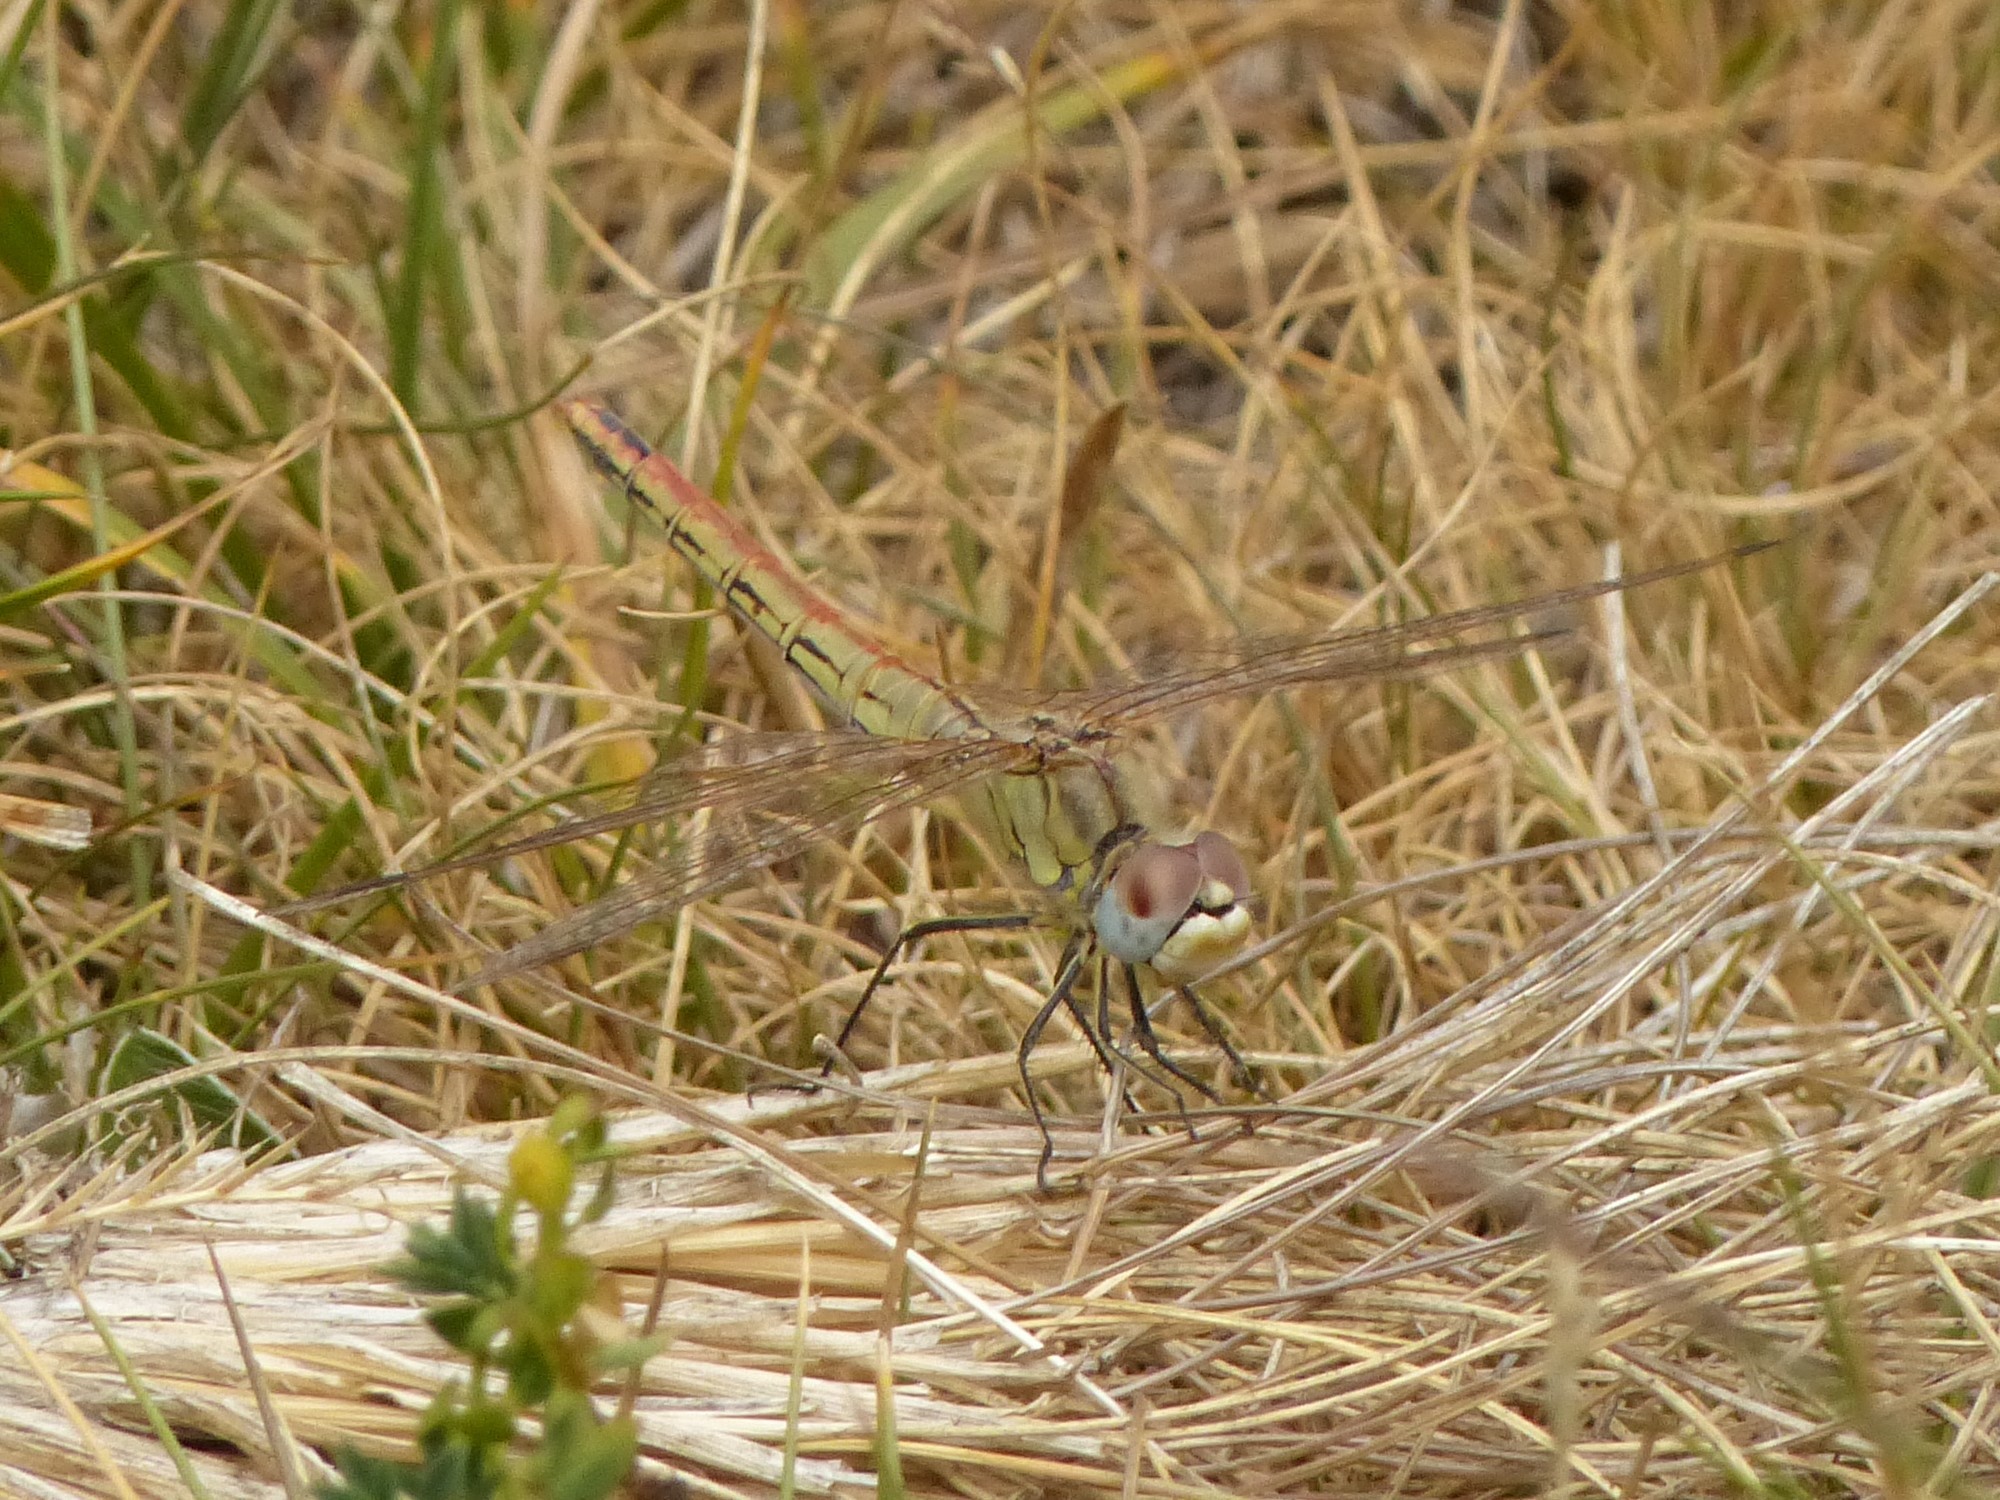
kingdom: Animalia
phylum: Arthropoda
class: Insecta
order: Odonata
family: Libellulidae
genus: Sympetrum
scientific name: Sympetrum fonscolombii
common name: Red-veined darter
